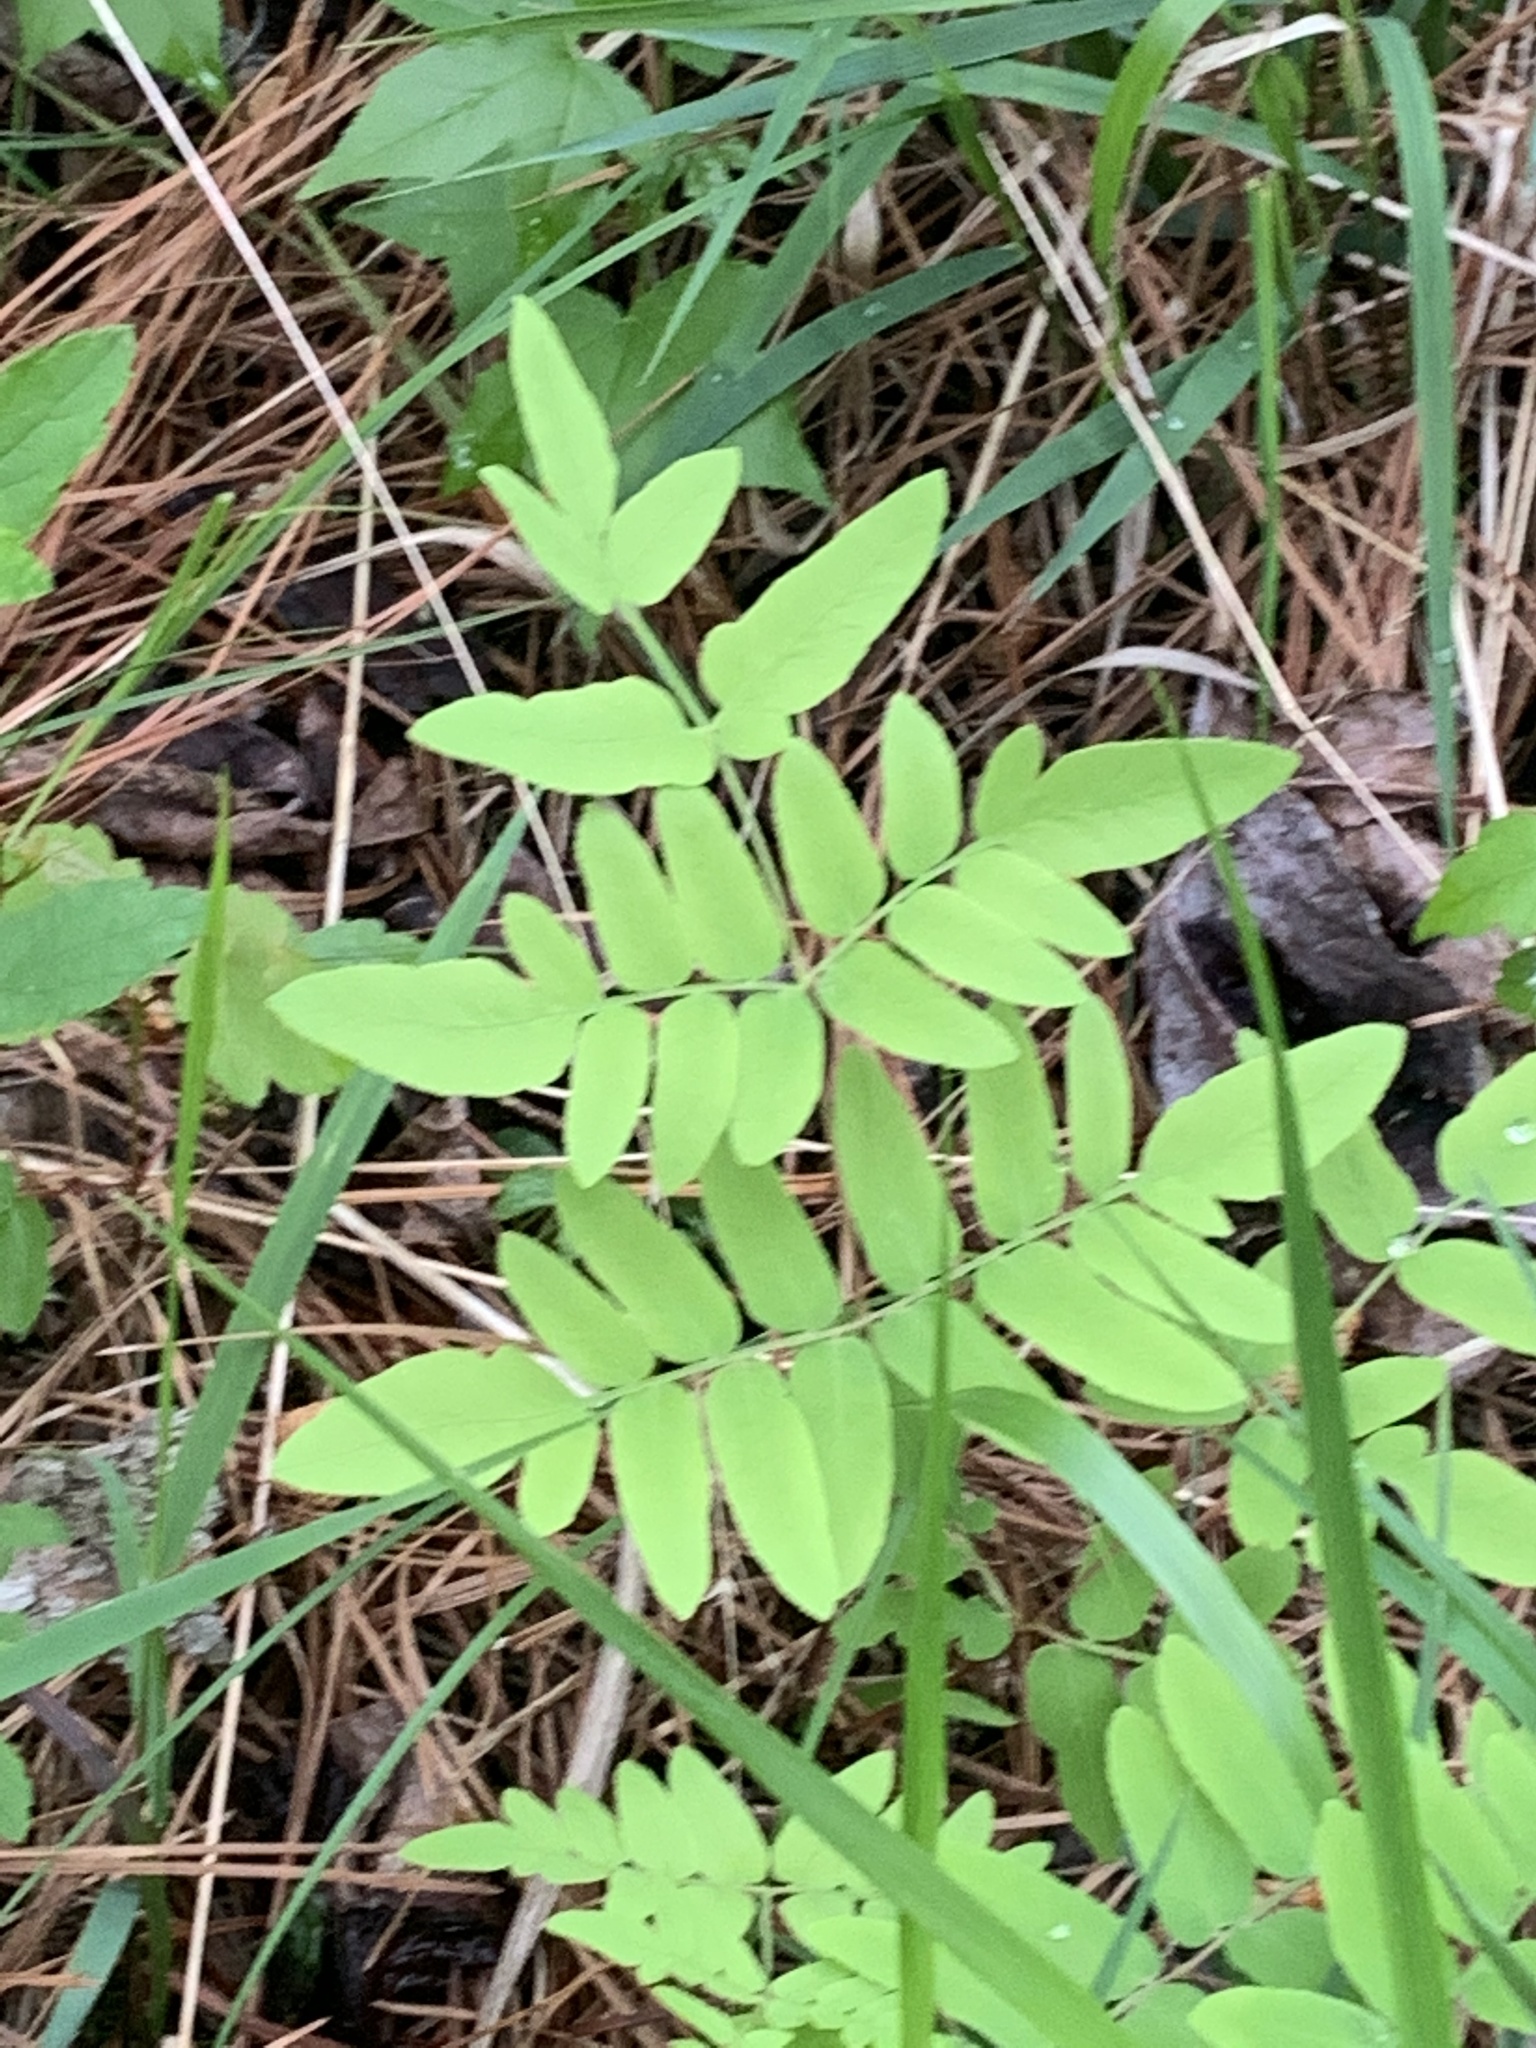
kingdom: Plantae
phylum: Tracheophyta
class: Polypodiopsida
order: Osmundales
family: Osmundaceae
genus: Osmunda
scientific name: Osmunda spectabilis
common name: American royal fern
